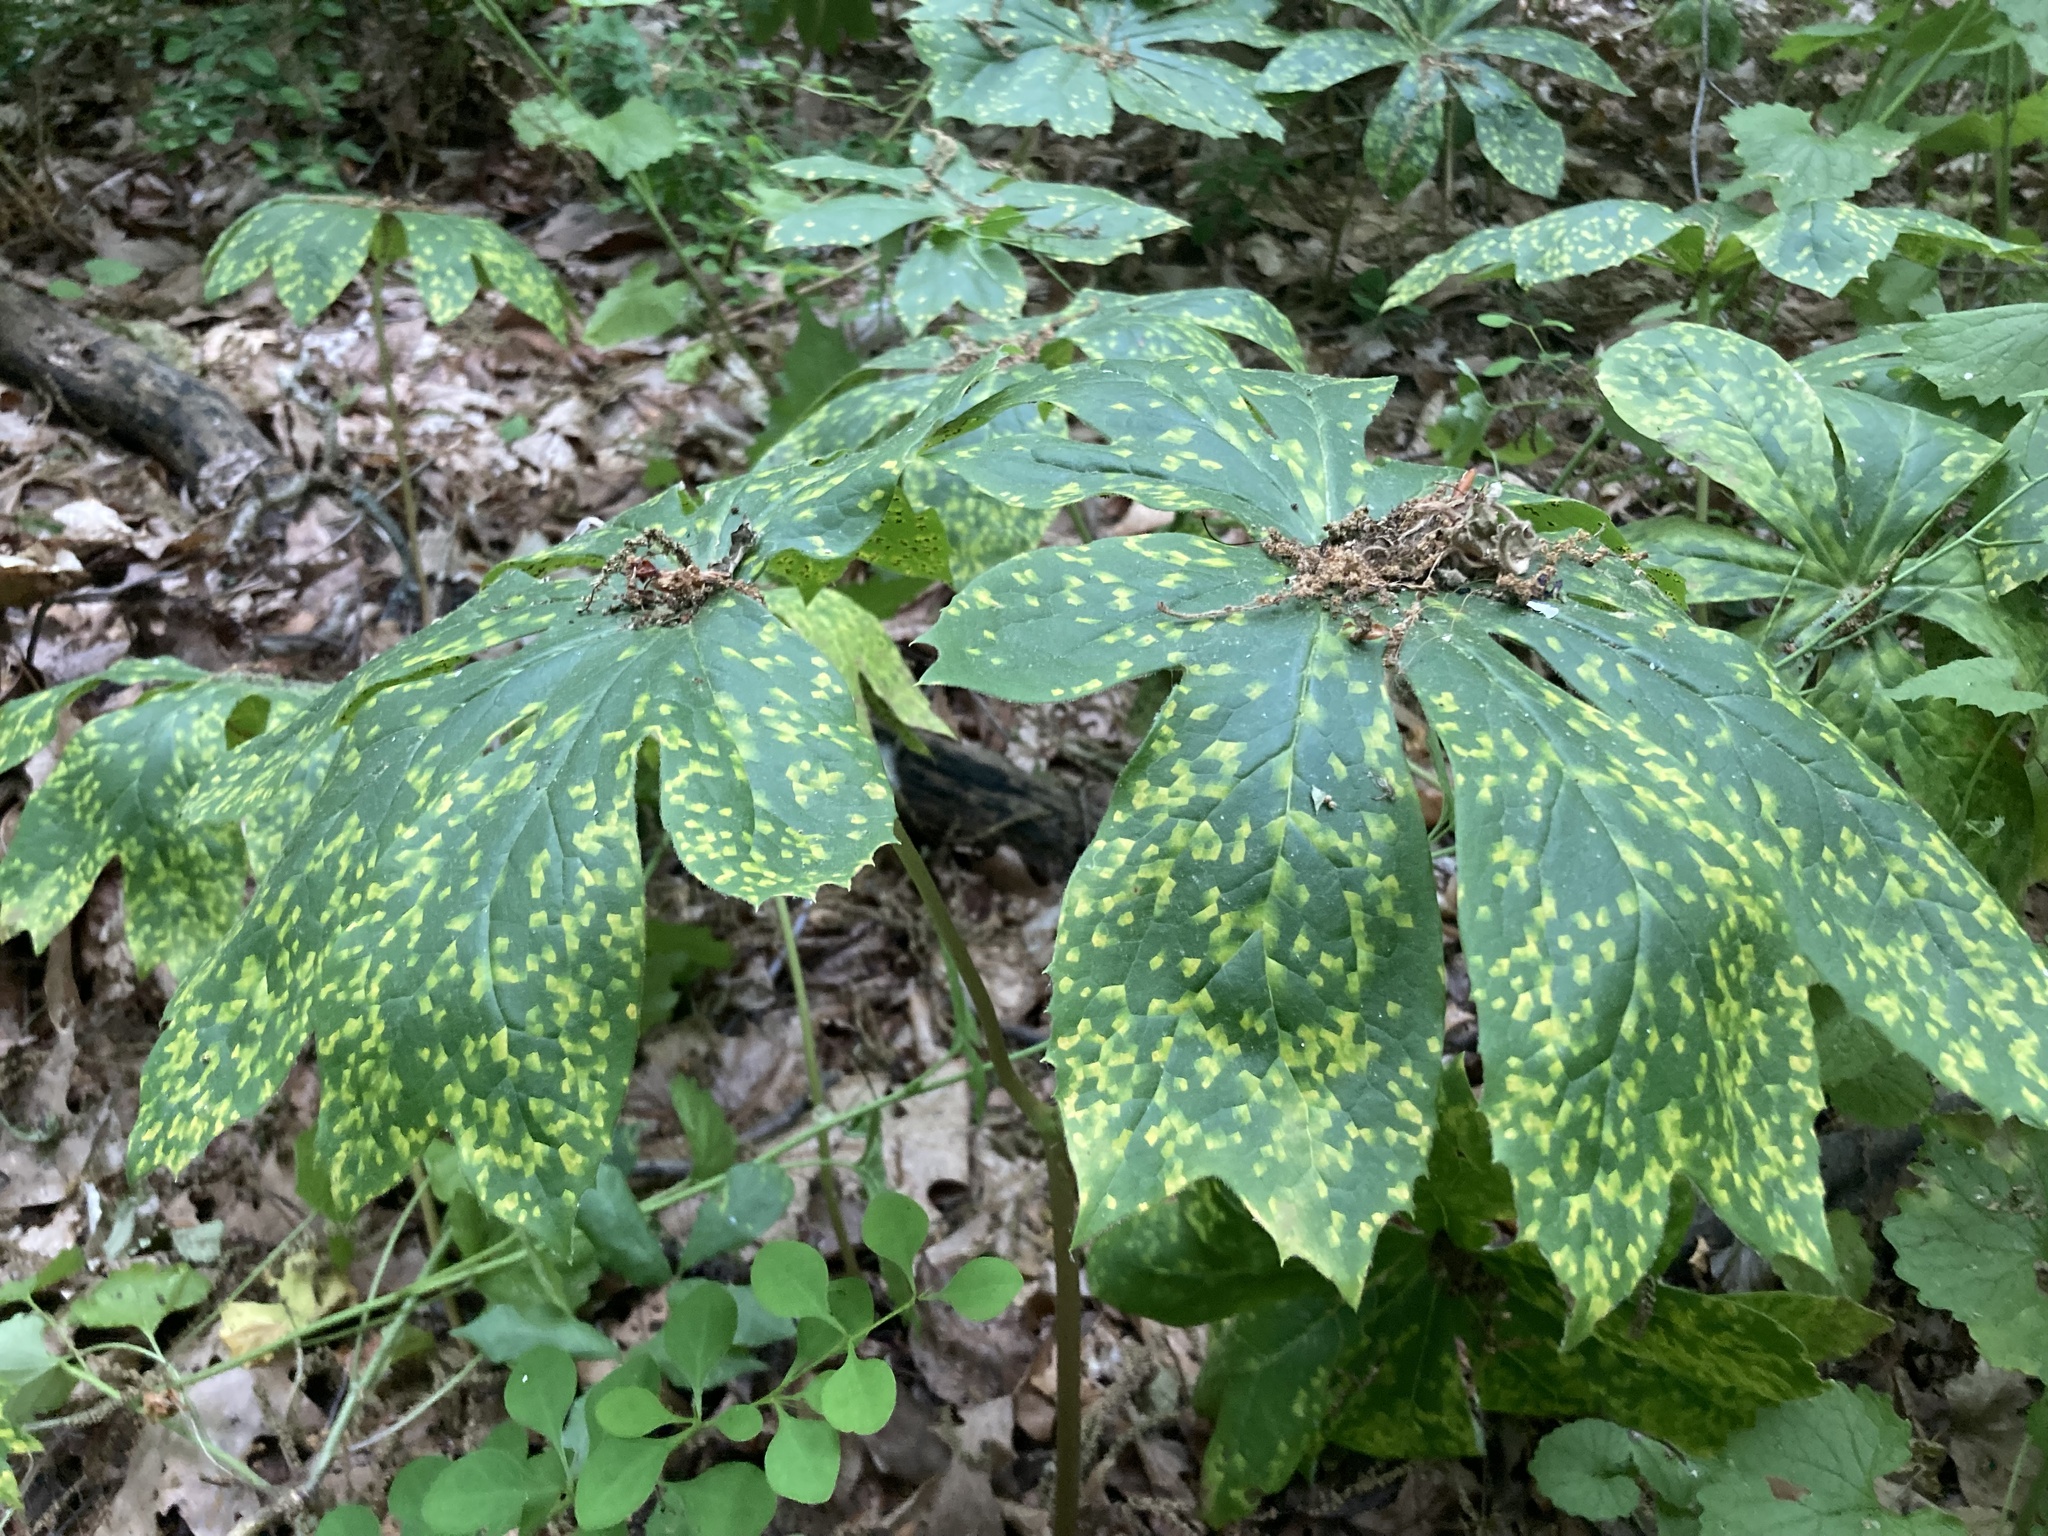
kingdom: Fungi
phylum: Basidiomycota
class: Pucciniomycetes
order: Pucciniales
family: Pucciniaceae
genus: Puccinia
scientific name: Puccinia podophylli
